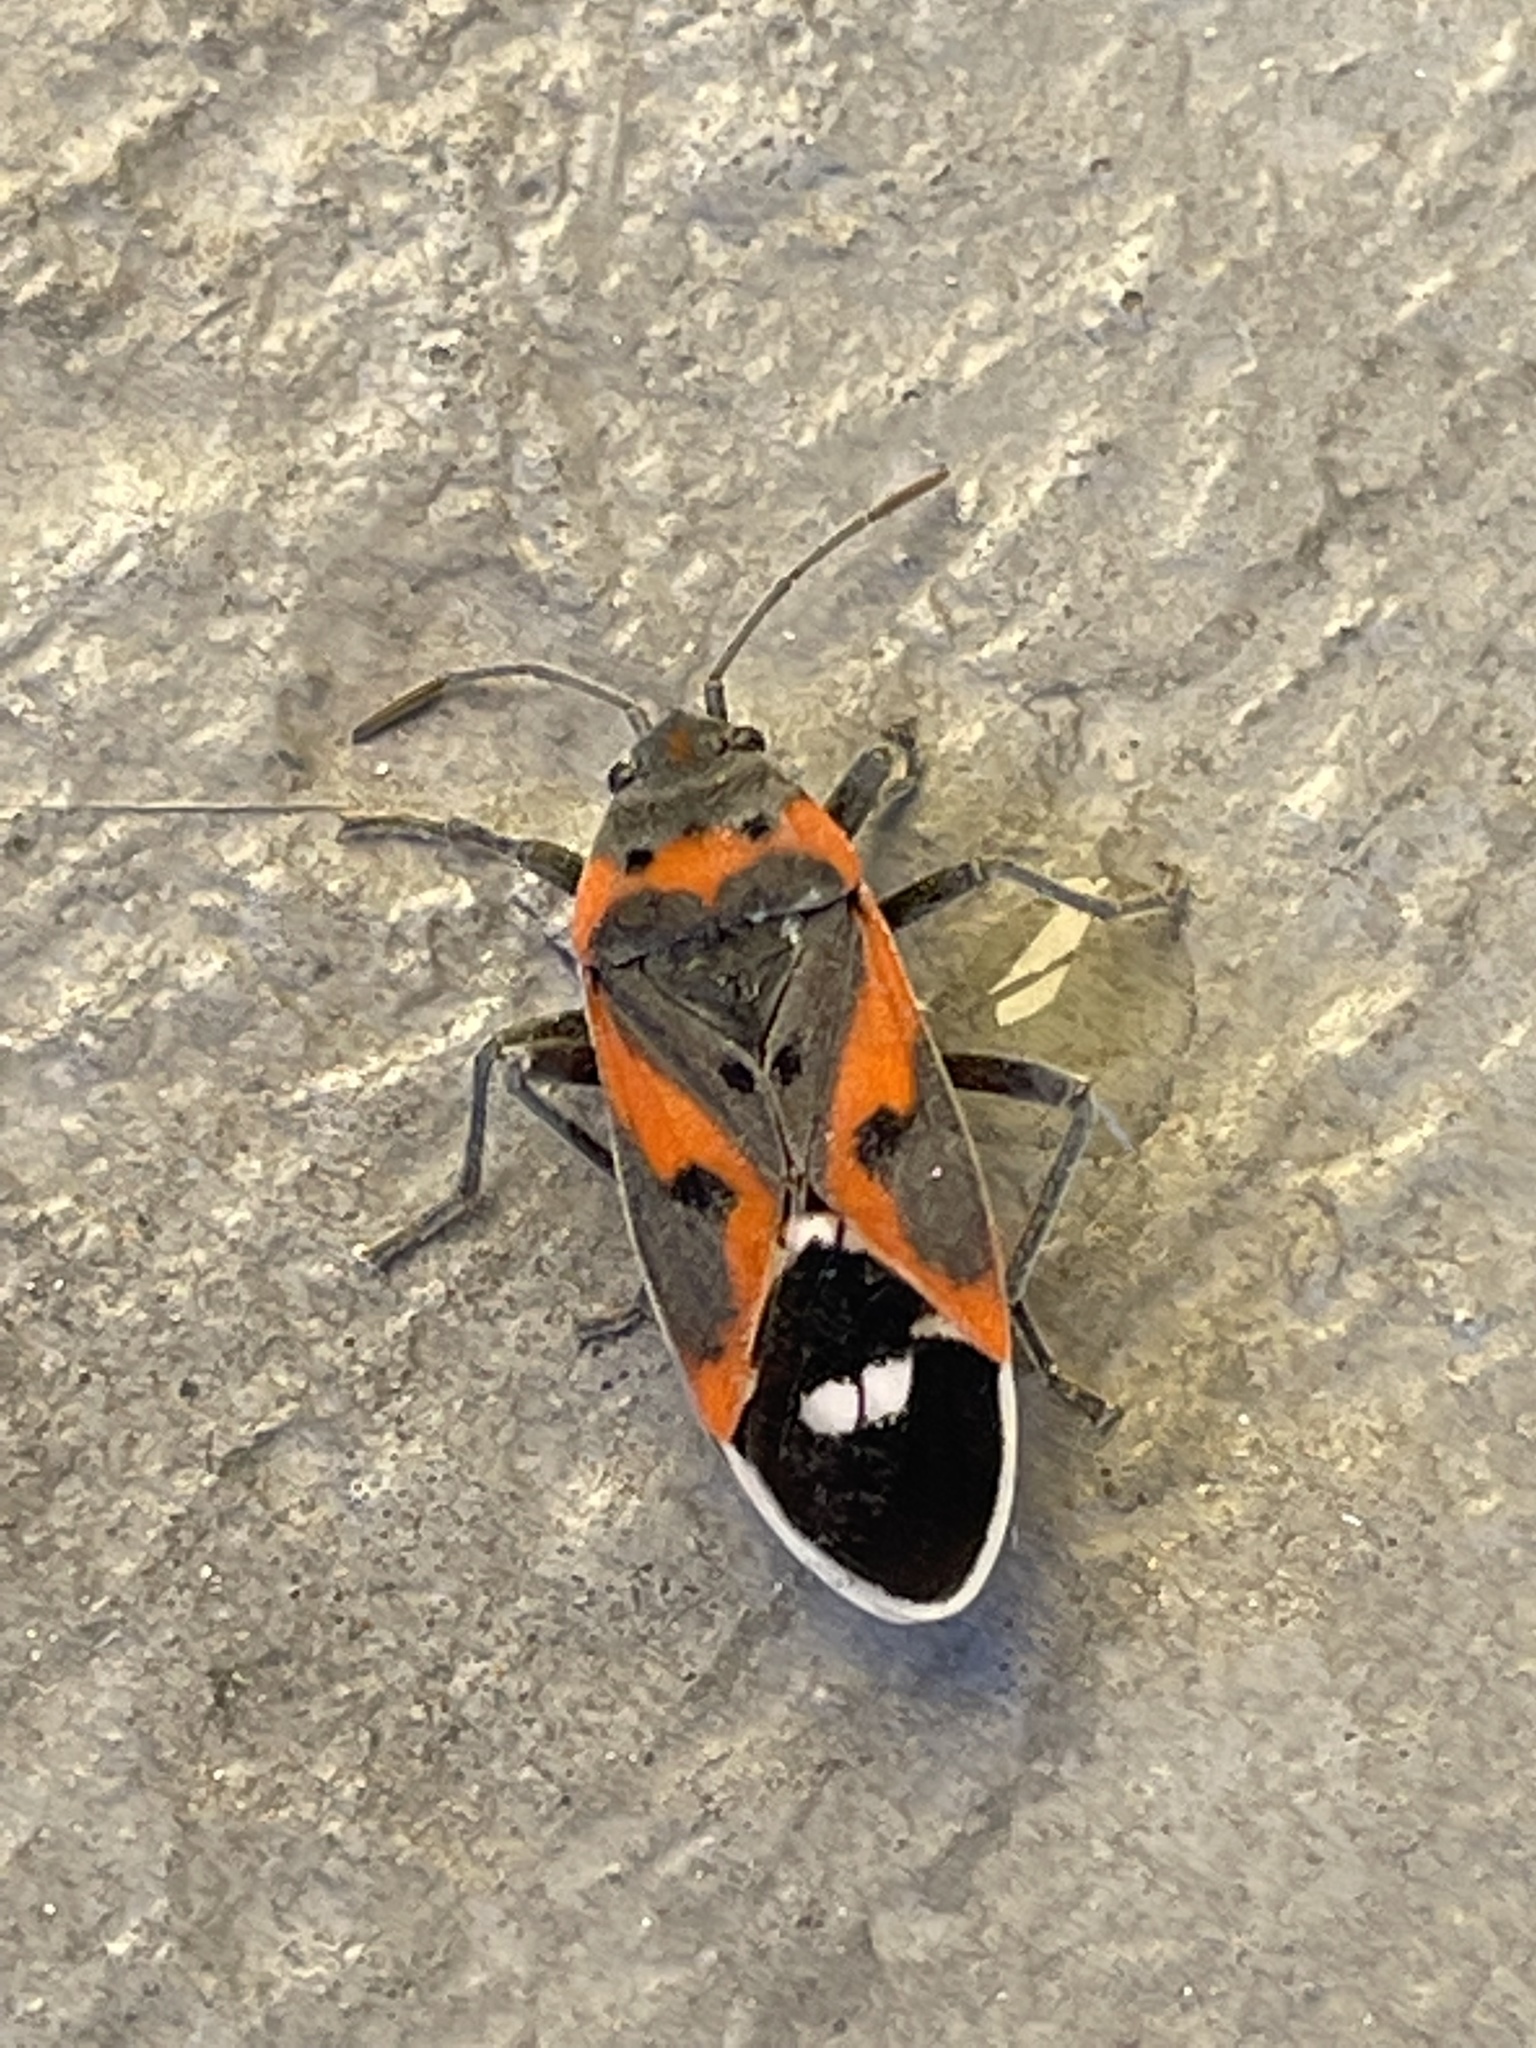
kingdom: Animalia
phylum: Arthropoda
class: Insecta
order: Hemiptera
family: Lygaeidae
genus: Lygaeus
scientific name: Lygaeus kalmii
